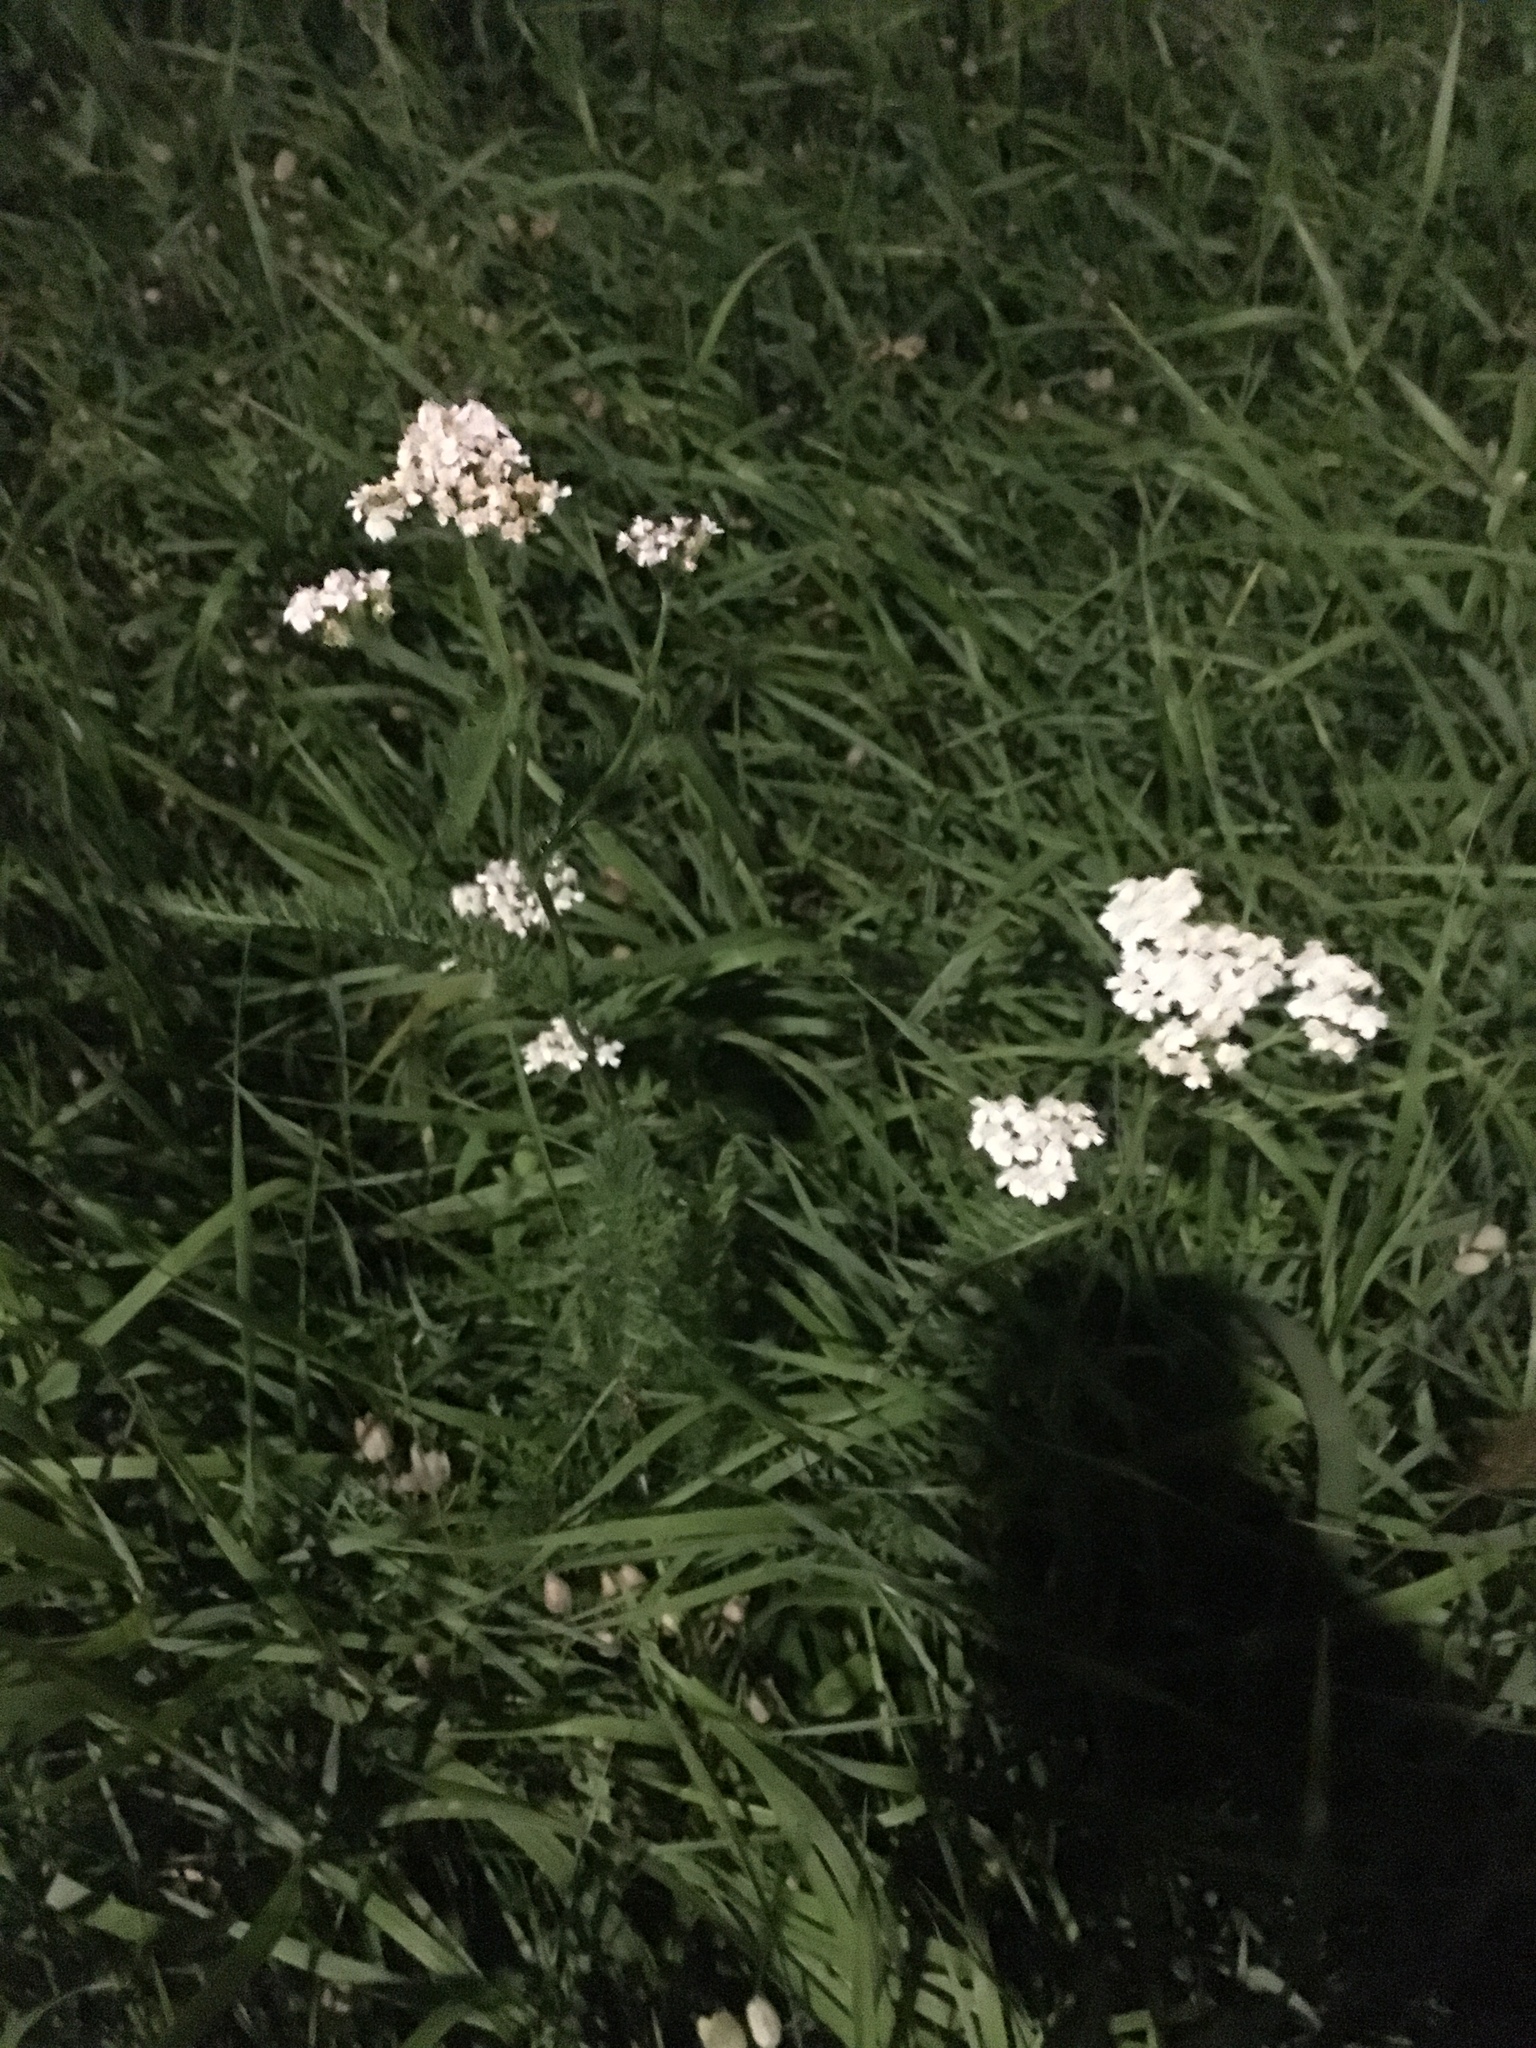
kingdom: Plantae
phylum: Tracheophyta
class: Magnoliopsida
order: Asterales
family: Asteraceae
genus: Achillea
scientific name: Achillea millefolium
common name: Yarrow
